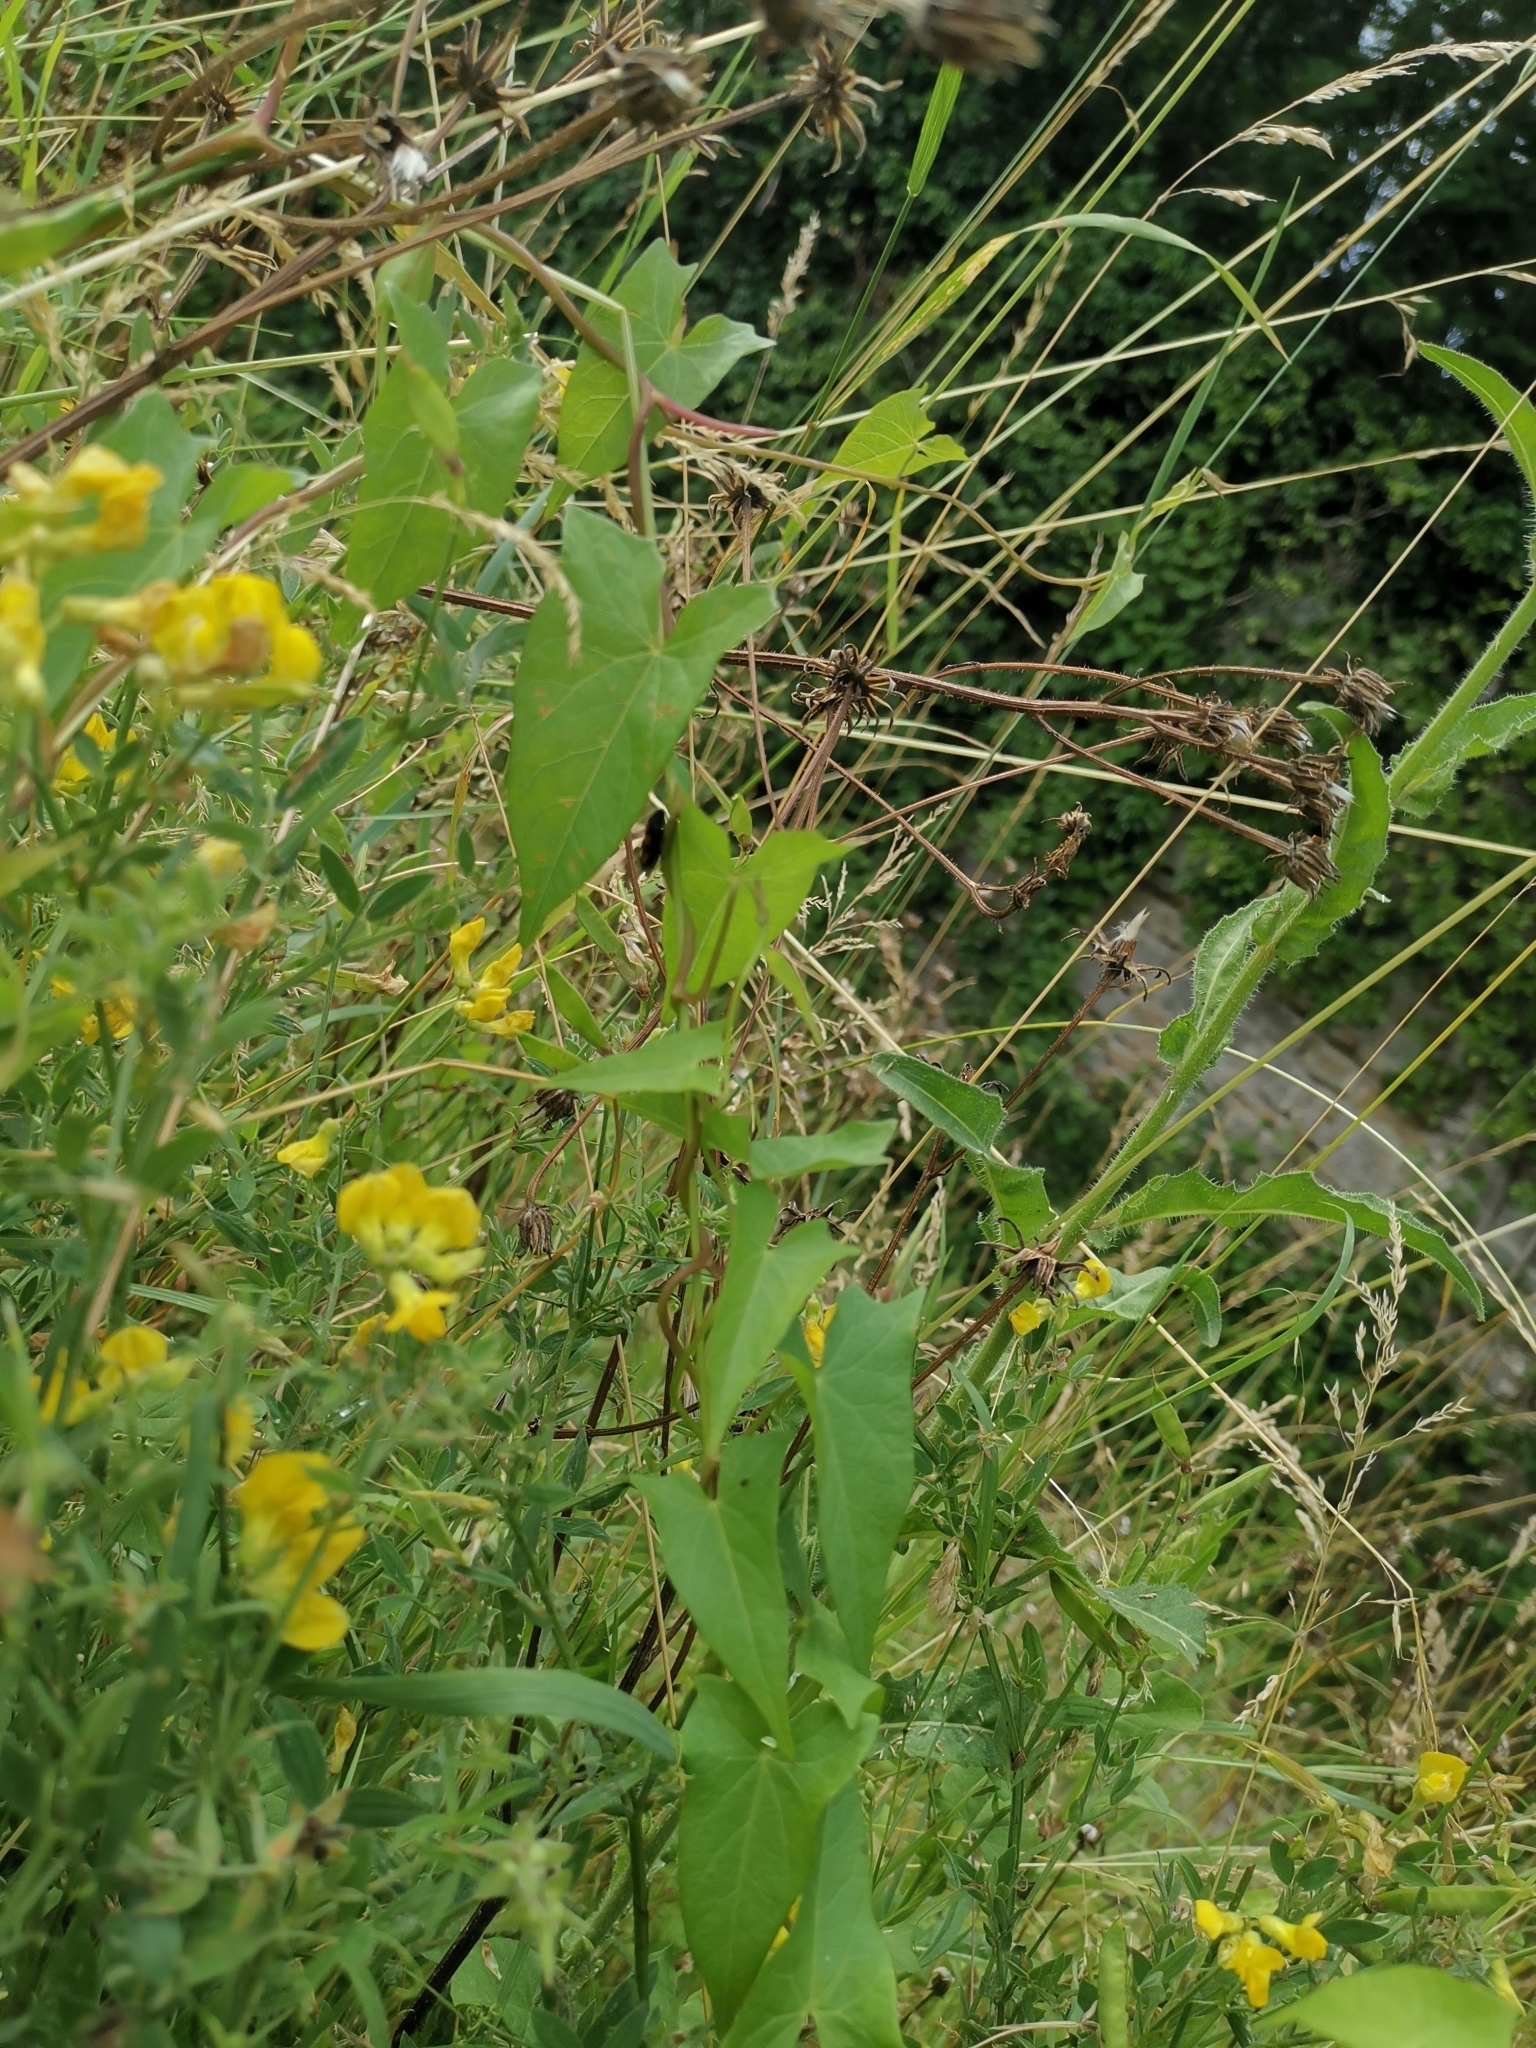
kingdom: Plantae
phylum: Tracheophyta
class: Magnoliopsida
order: Solanales
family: Convolvulaceae
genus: Calystegia
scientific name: Calystegia sepium
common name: Hedge bindweed
